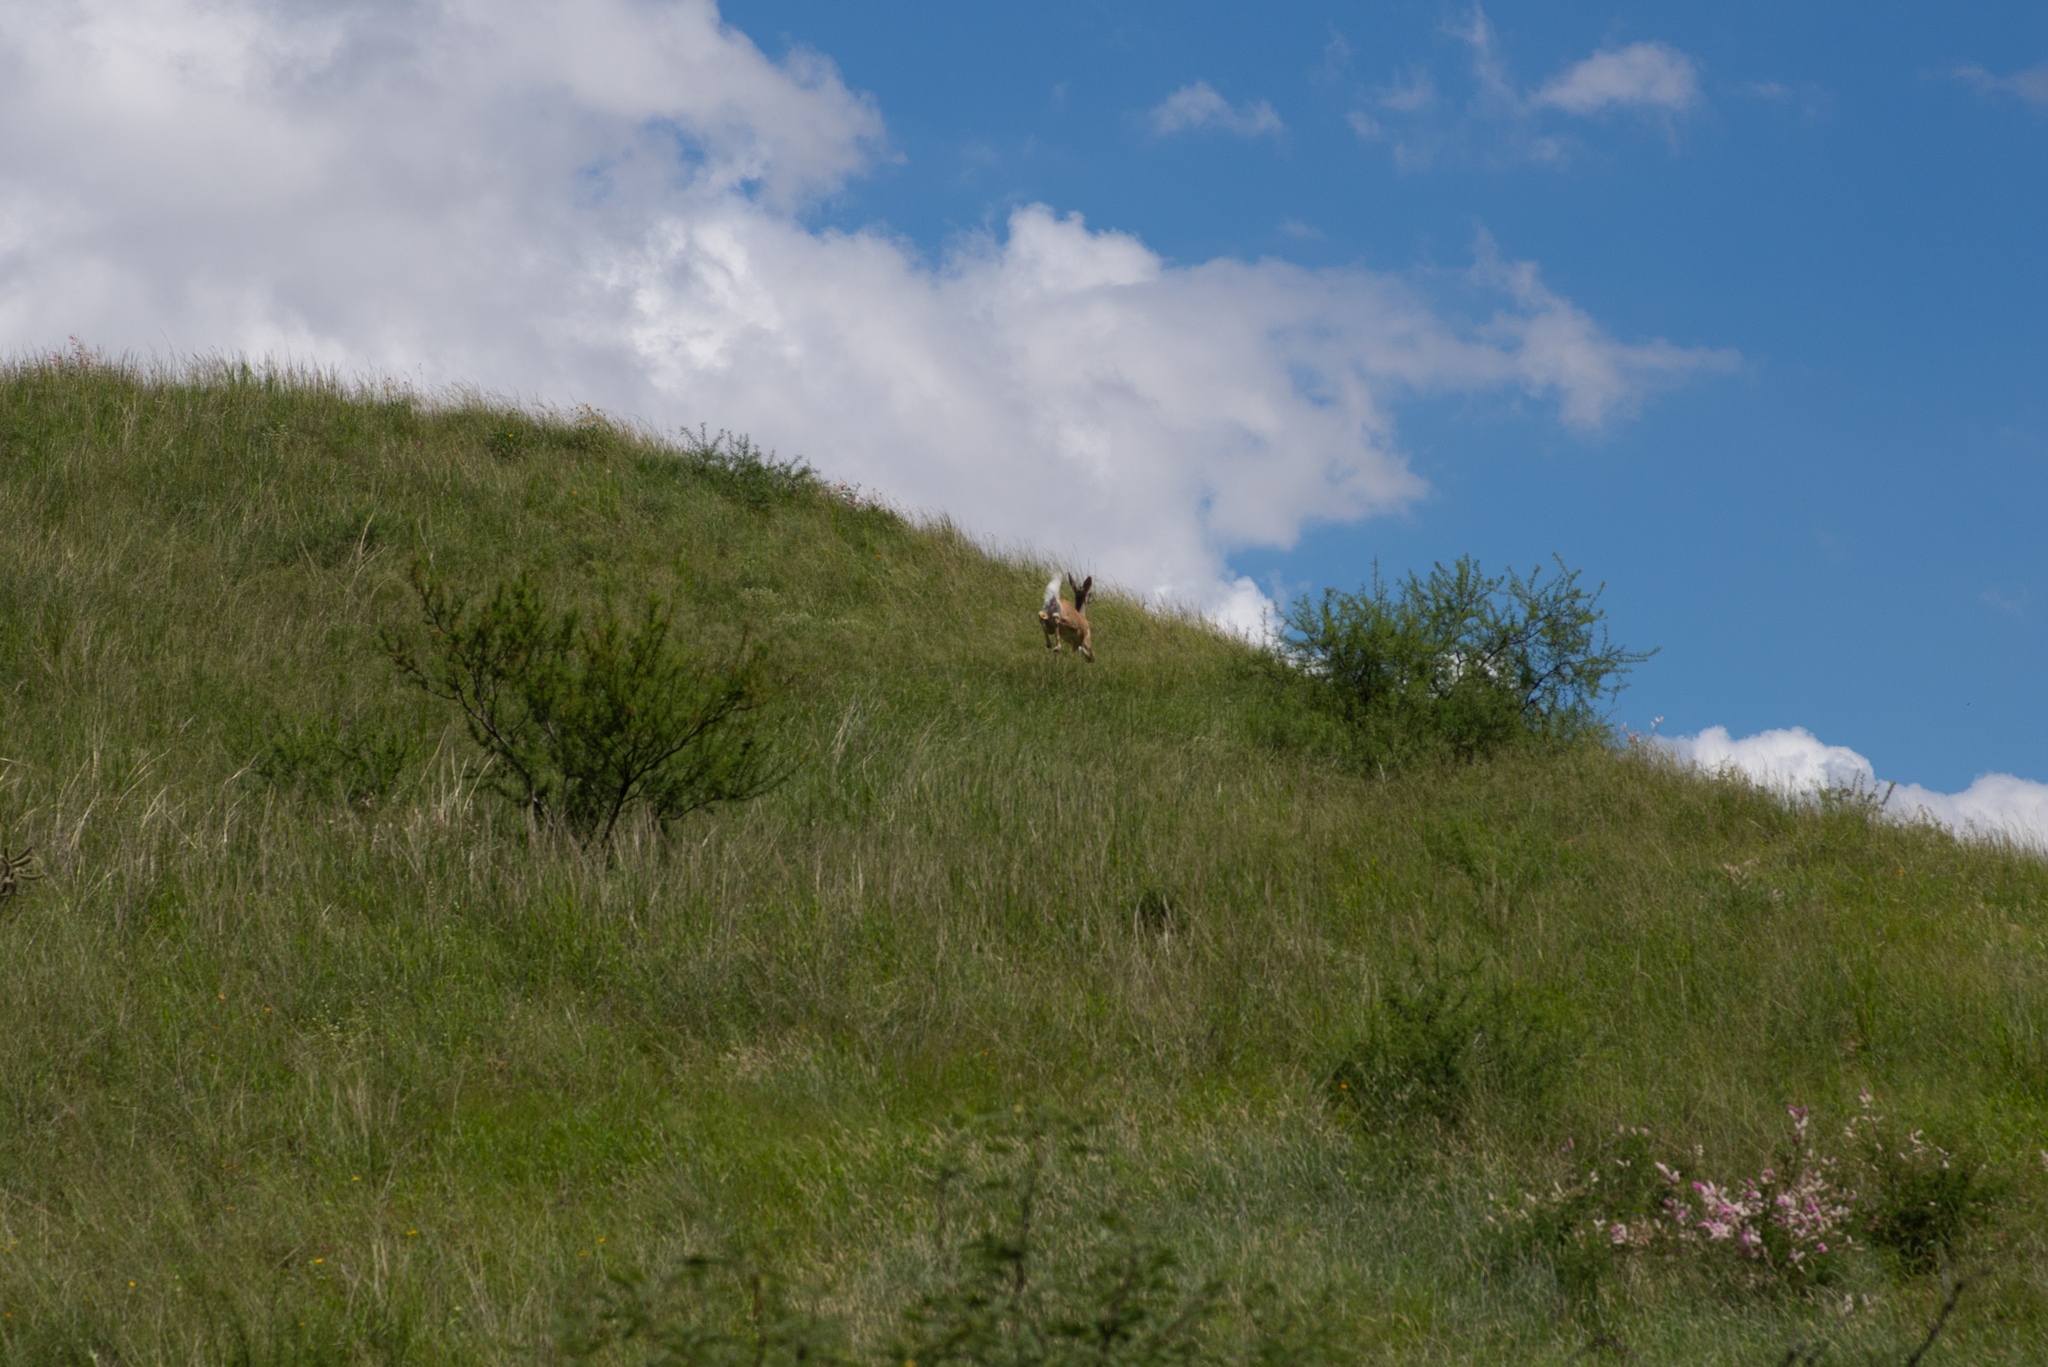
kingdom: Animalia
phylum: Chordata
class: Mammalia
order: Artiodactyla
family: Cervidae
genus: Odocoileus
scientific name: Odocoileus virginianus
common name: White-tailed deer
